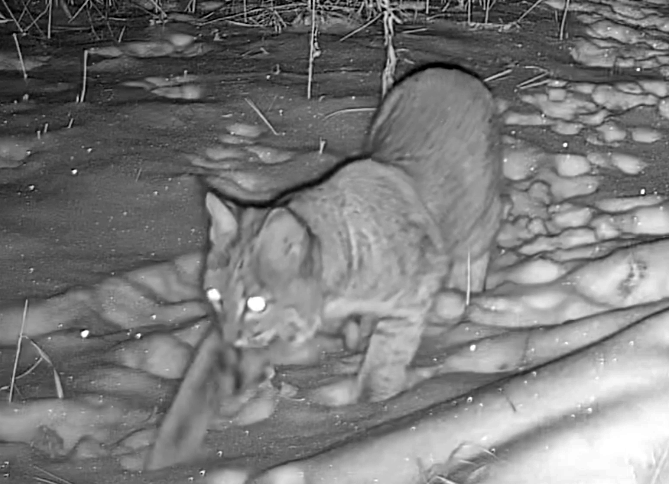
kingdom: Animalia
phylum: Chordata
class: Mammalia
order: Carnivora
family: Felidae
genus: Lynx
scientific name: Lynx rufus
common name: Bobcat
